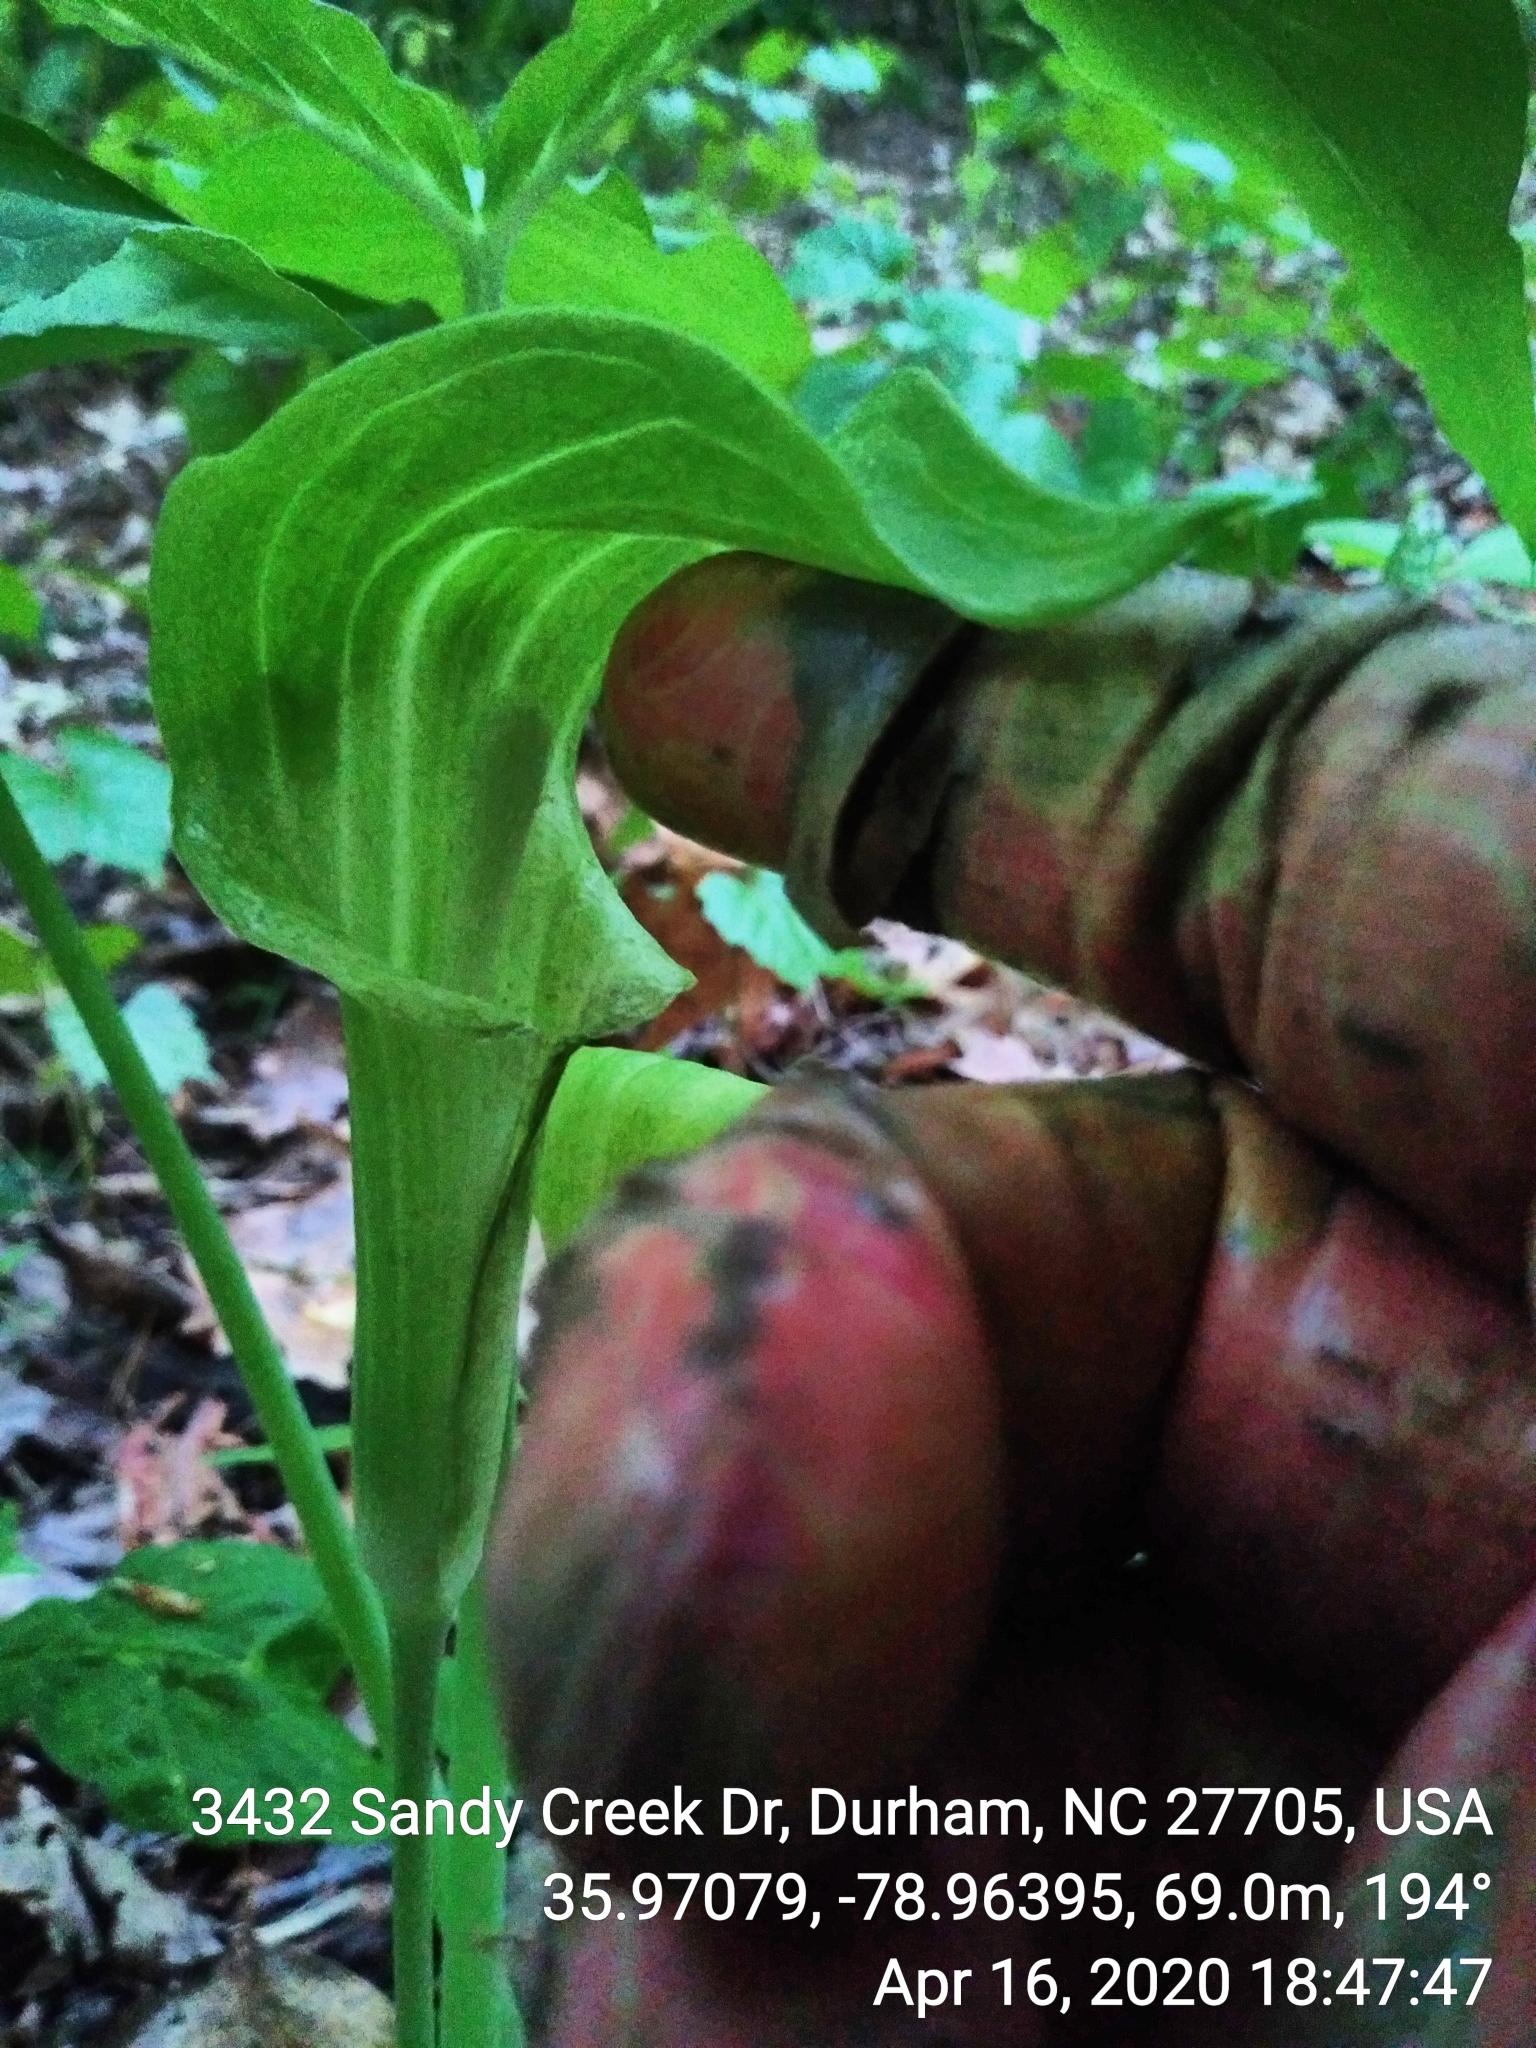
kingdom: Plantae
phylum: Tracheophyta
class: Liliopsida
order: Alismatales
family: Araceae
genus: Arisaema
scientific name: Arisaema triphyllum
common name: Jack-in-the-pulpit
